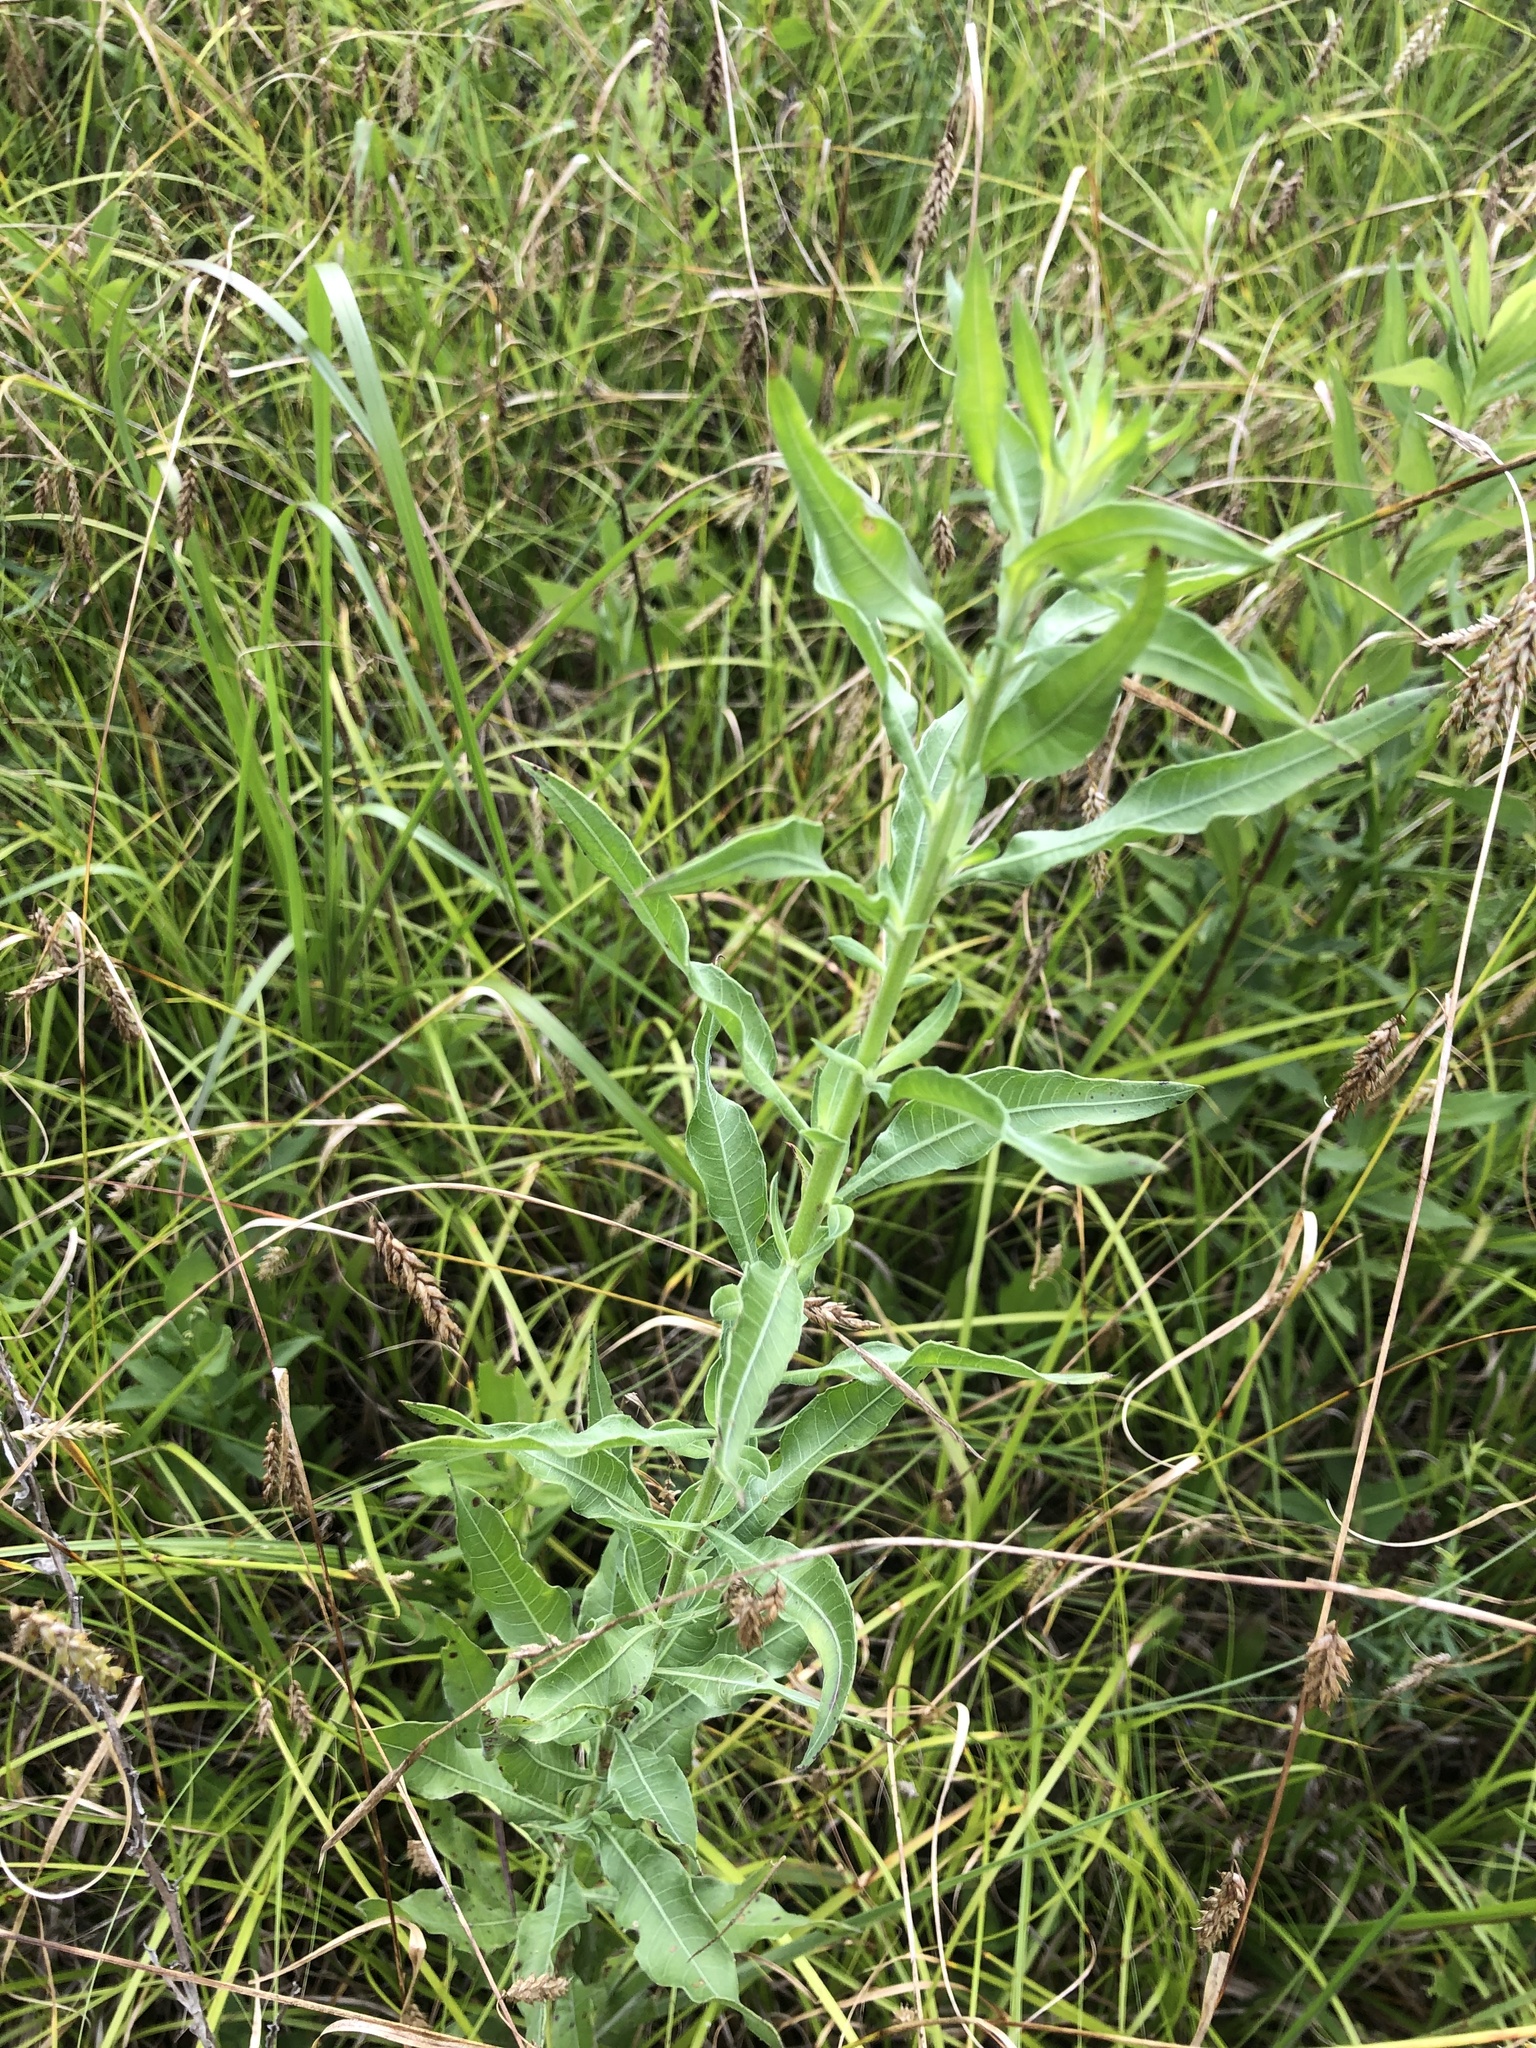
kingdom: Plantae
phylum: Tracheophyta
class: Magnoliopsida
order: Myrtales
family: Onagraceae
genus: Oenothera
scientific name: Oenothera filiformis
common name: Longflower beeblossom
